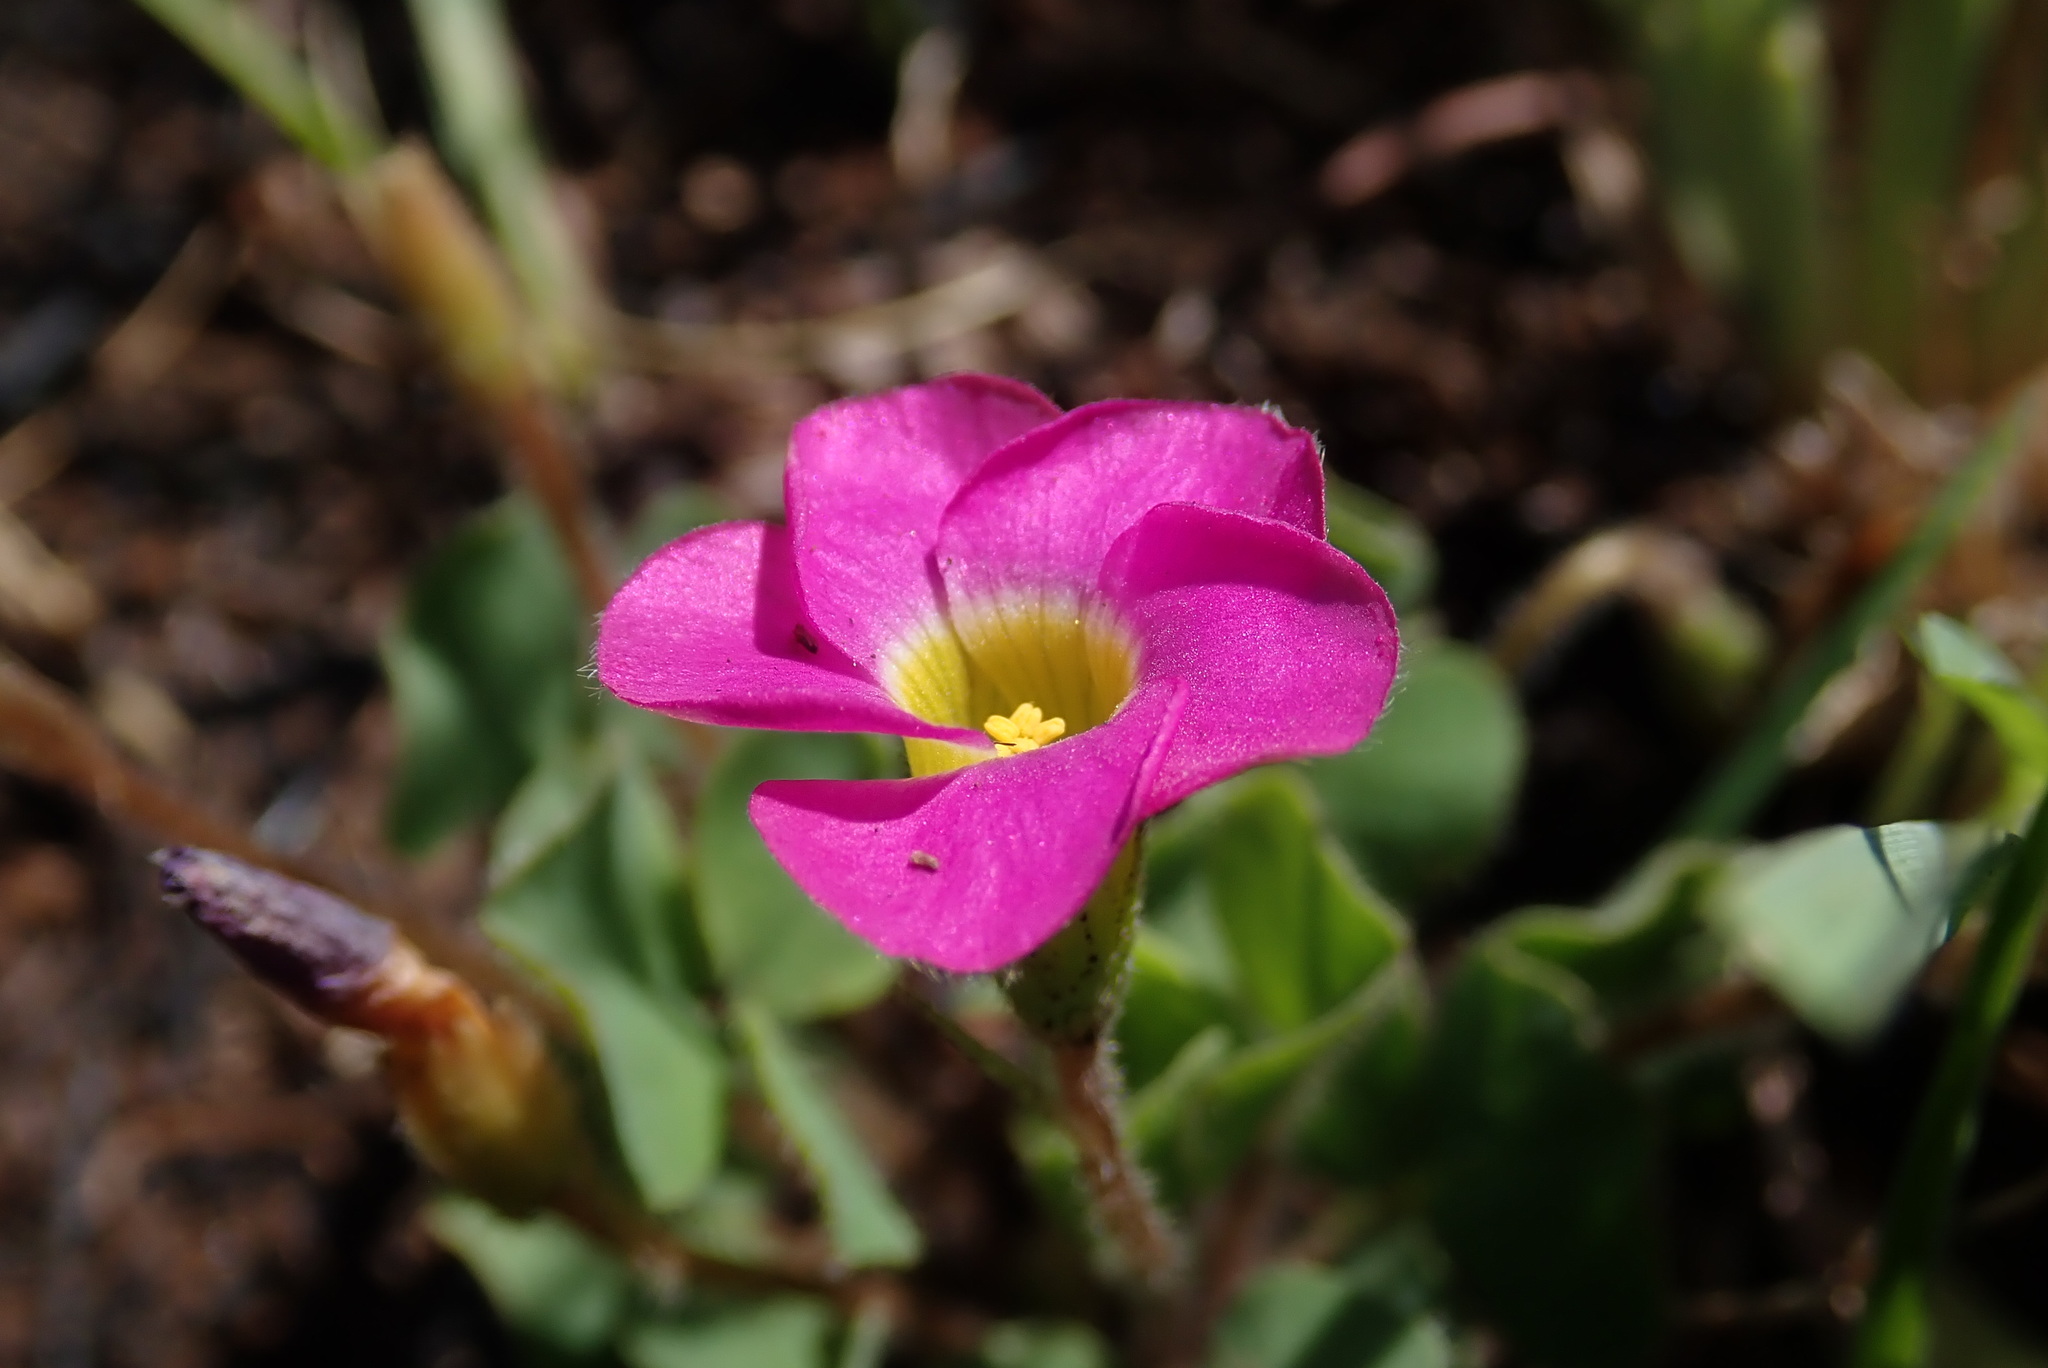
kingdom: Plantae
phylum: Tracheophyta
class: Magnoliopsida
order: Oxalidales
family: Oxalidaceae
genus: Oxalis
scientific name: Oxalis obliquifolia
